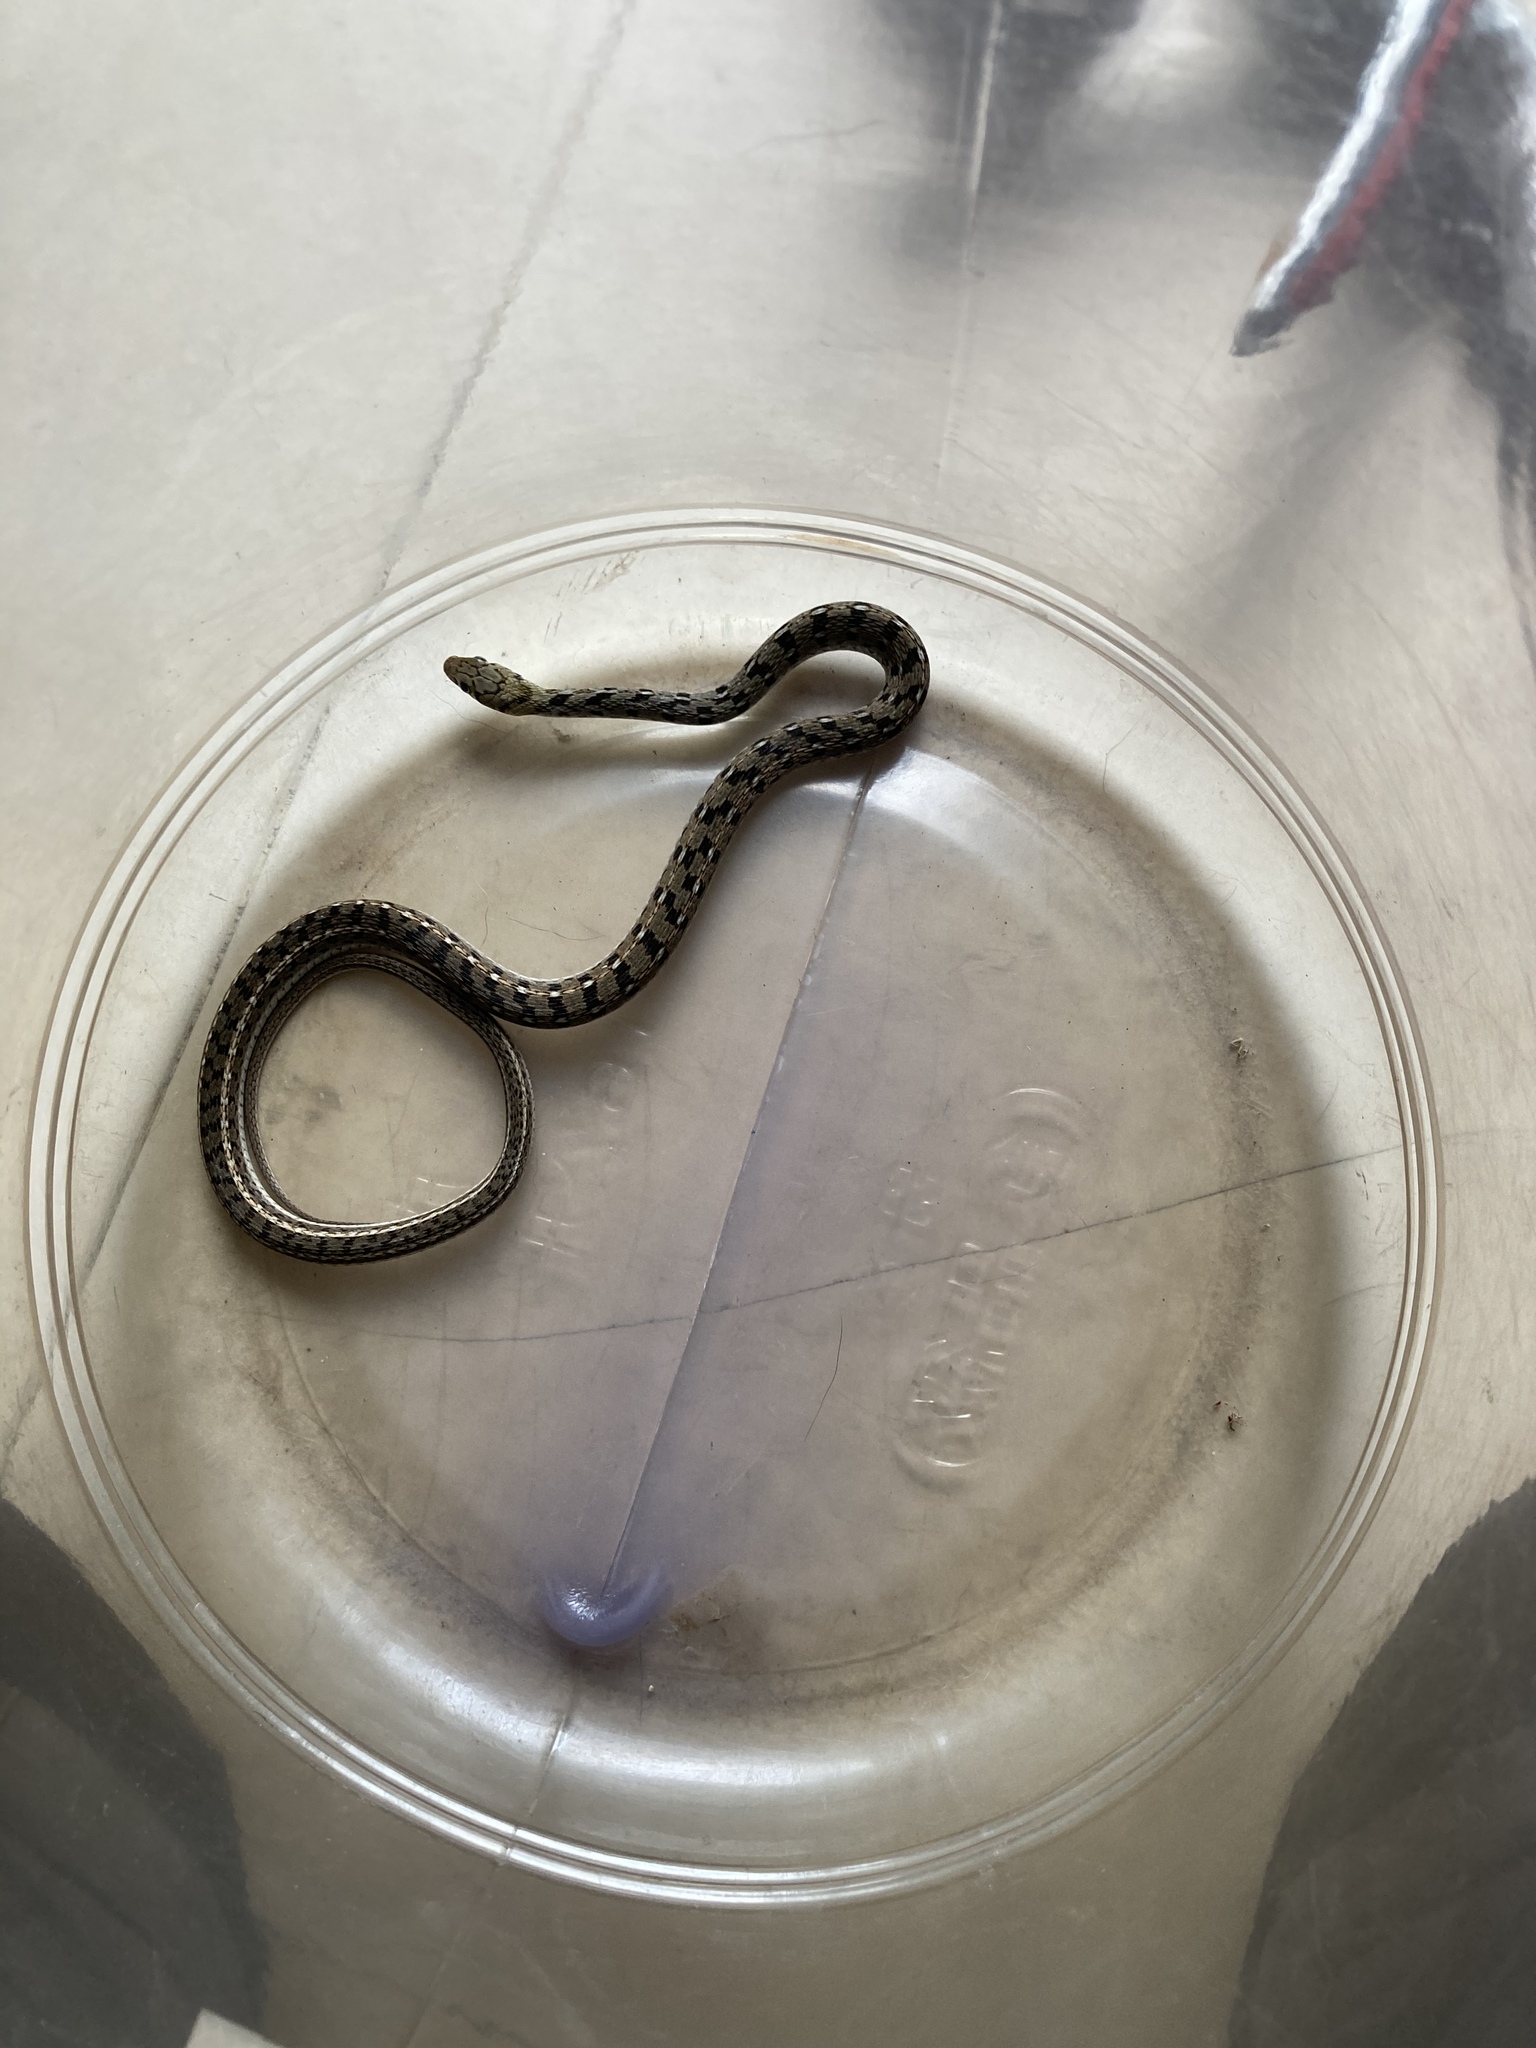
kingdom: Animalia
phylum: Chordata
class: Squamata
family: Colubridae
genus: Amphiesma
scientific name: Amphiesma stolatum
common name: Buff striped keelback
